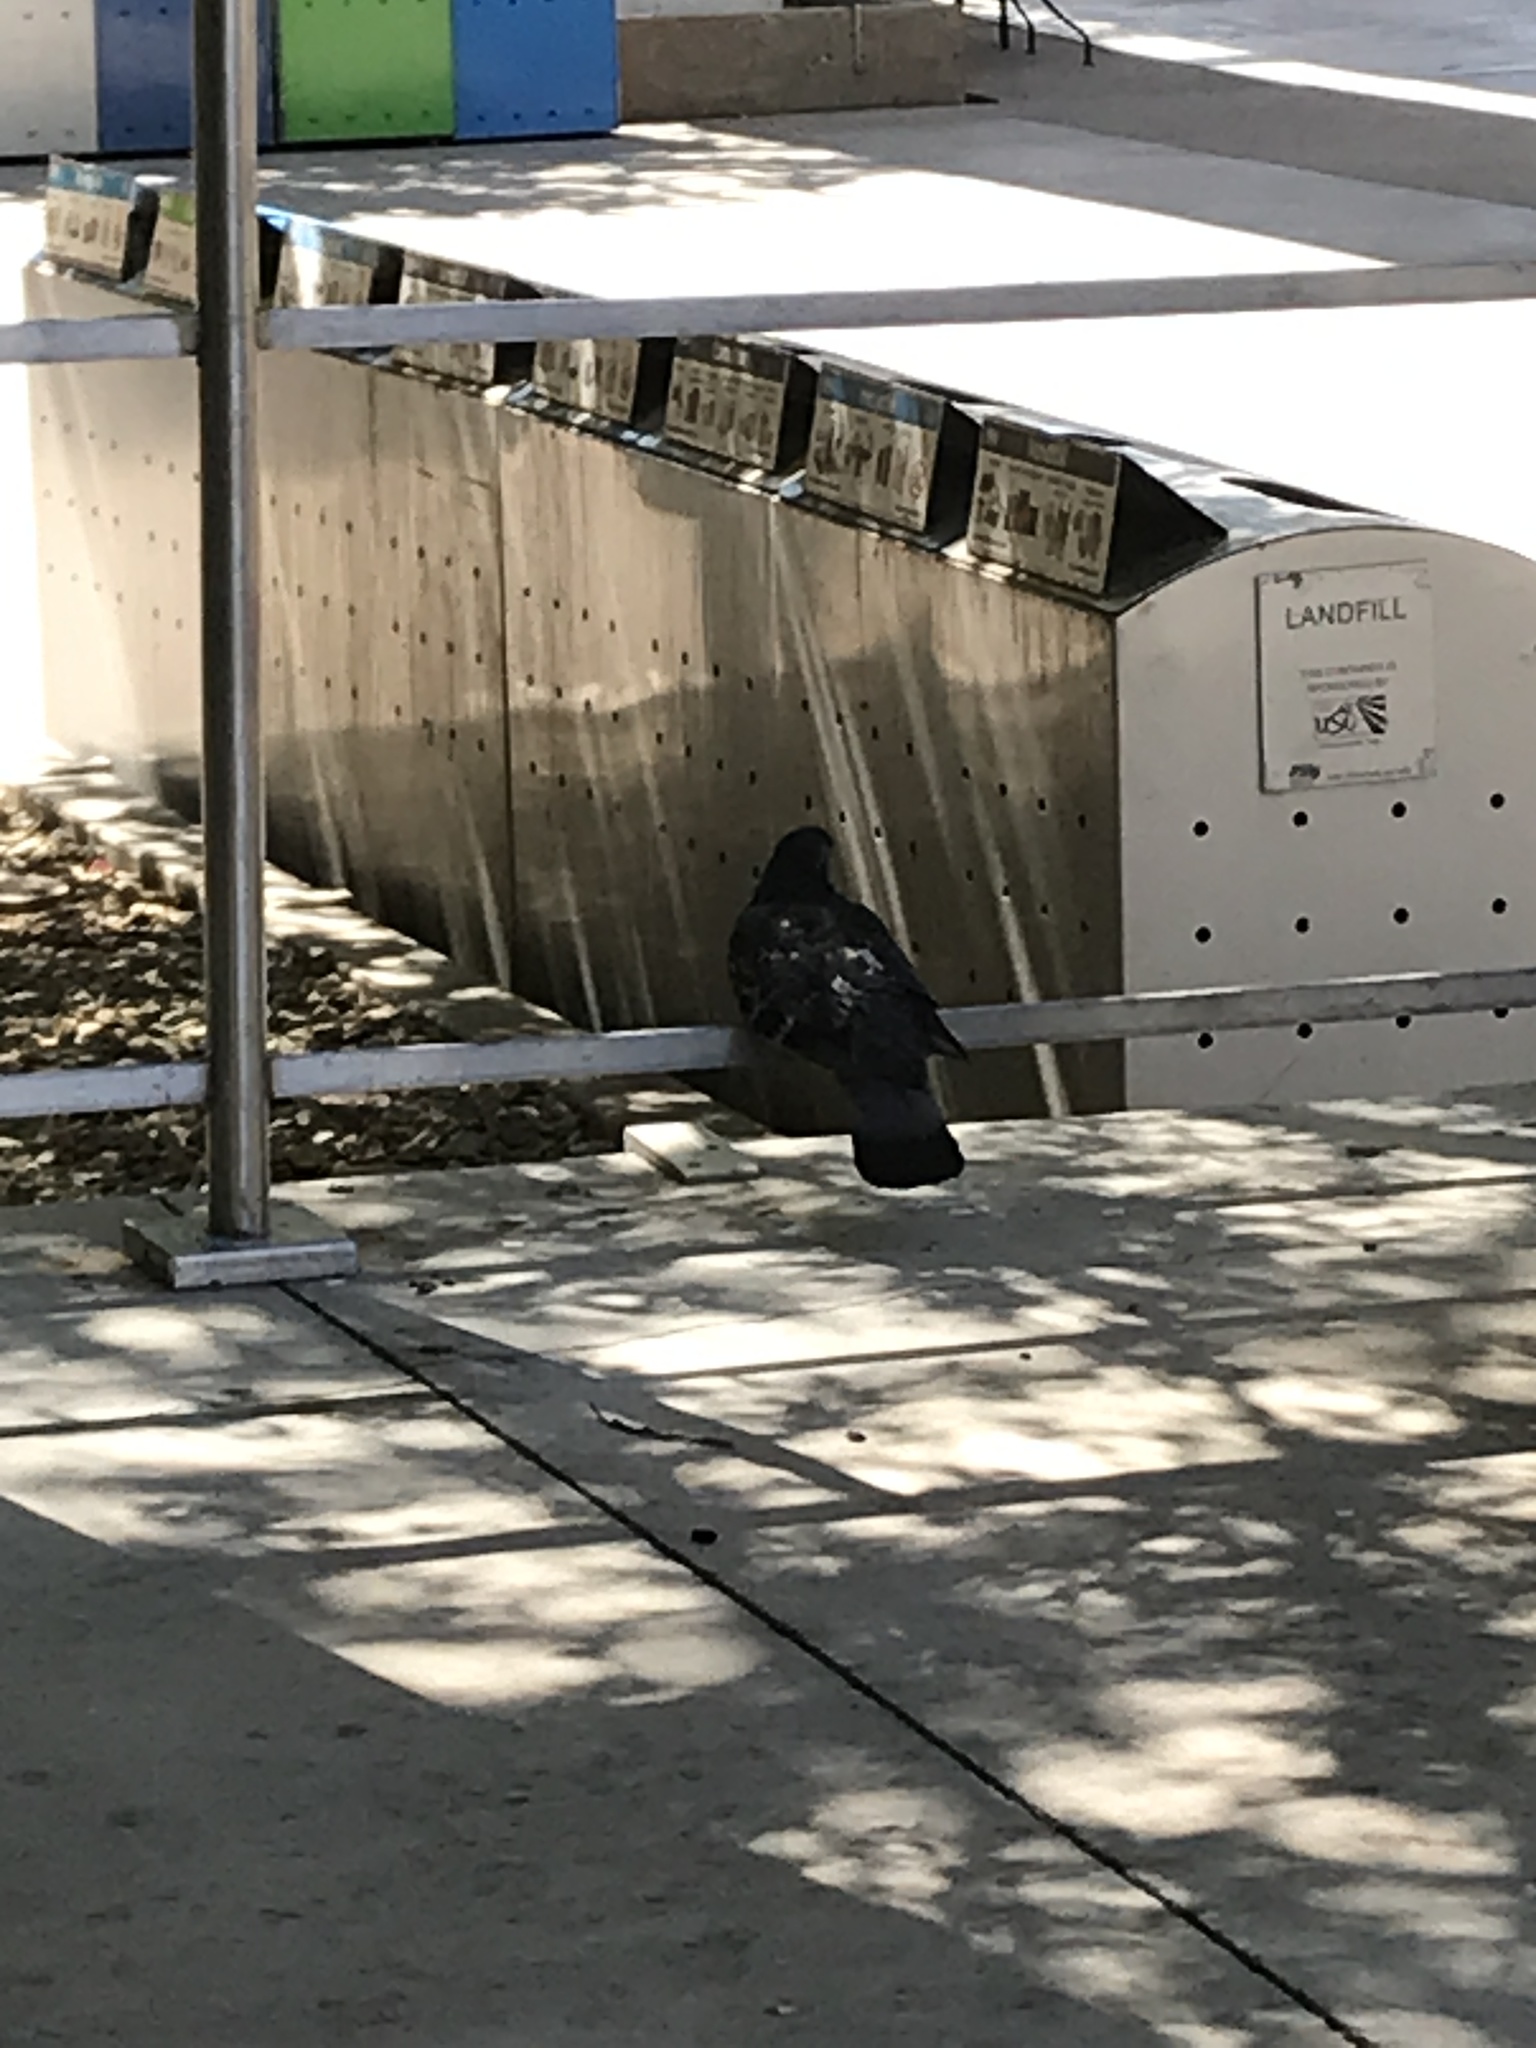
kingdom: Animalia
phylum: Chordata
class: Aves
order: Columbiformes
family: Columbidae
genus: Columba
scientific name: Columba livia
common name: Rock pigeon
